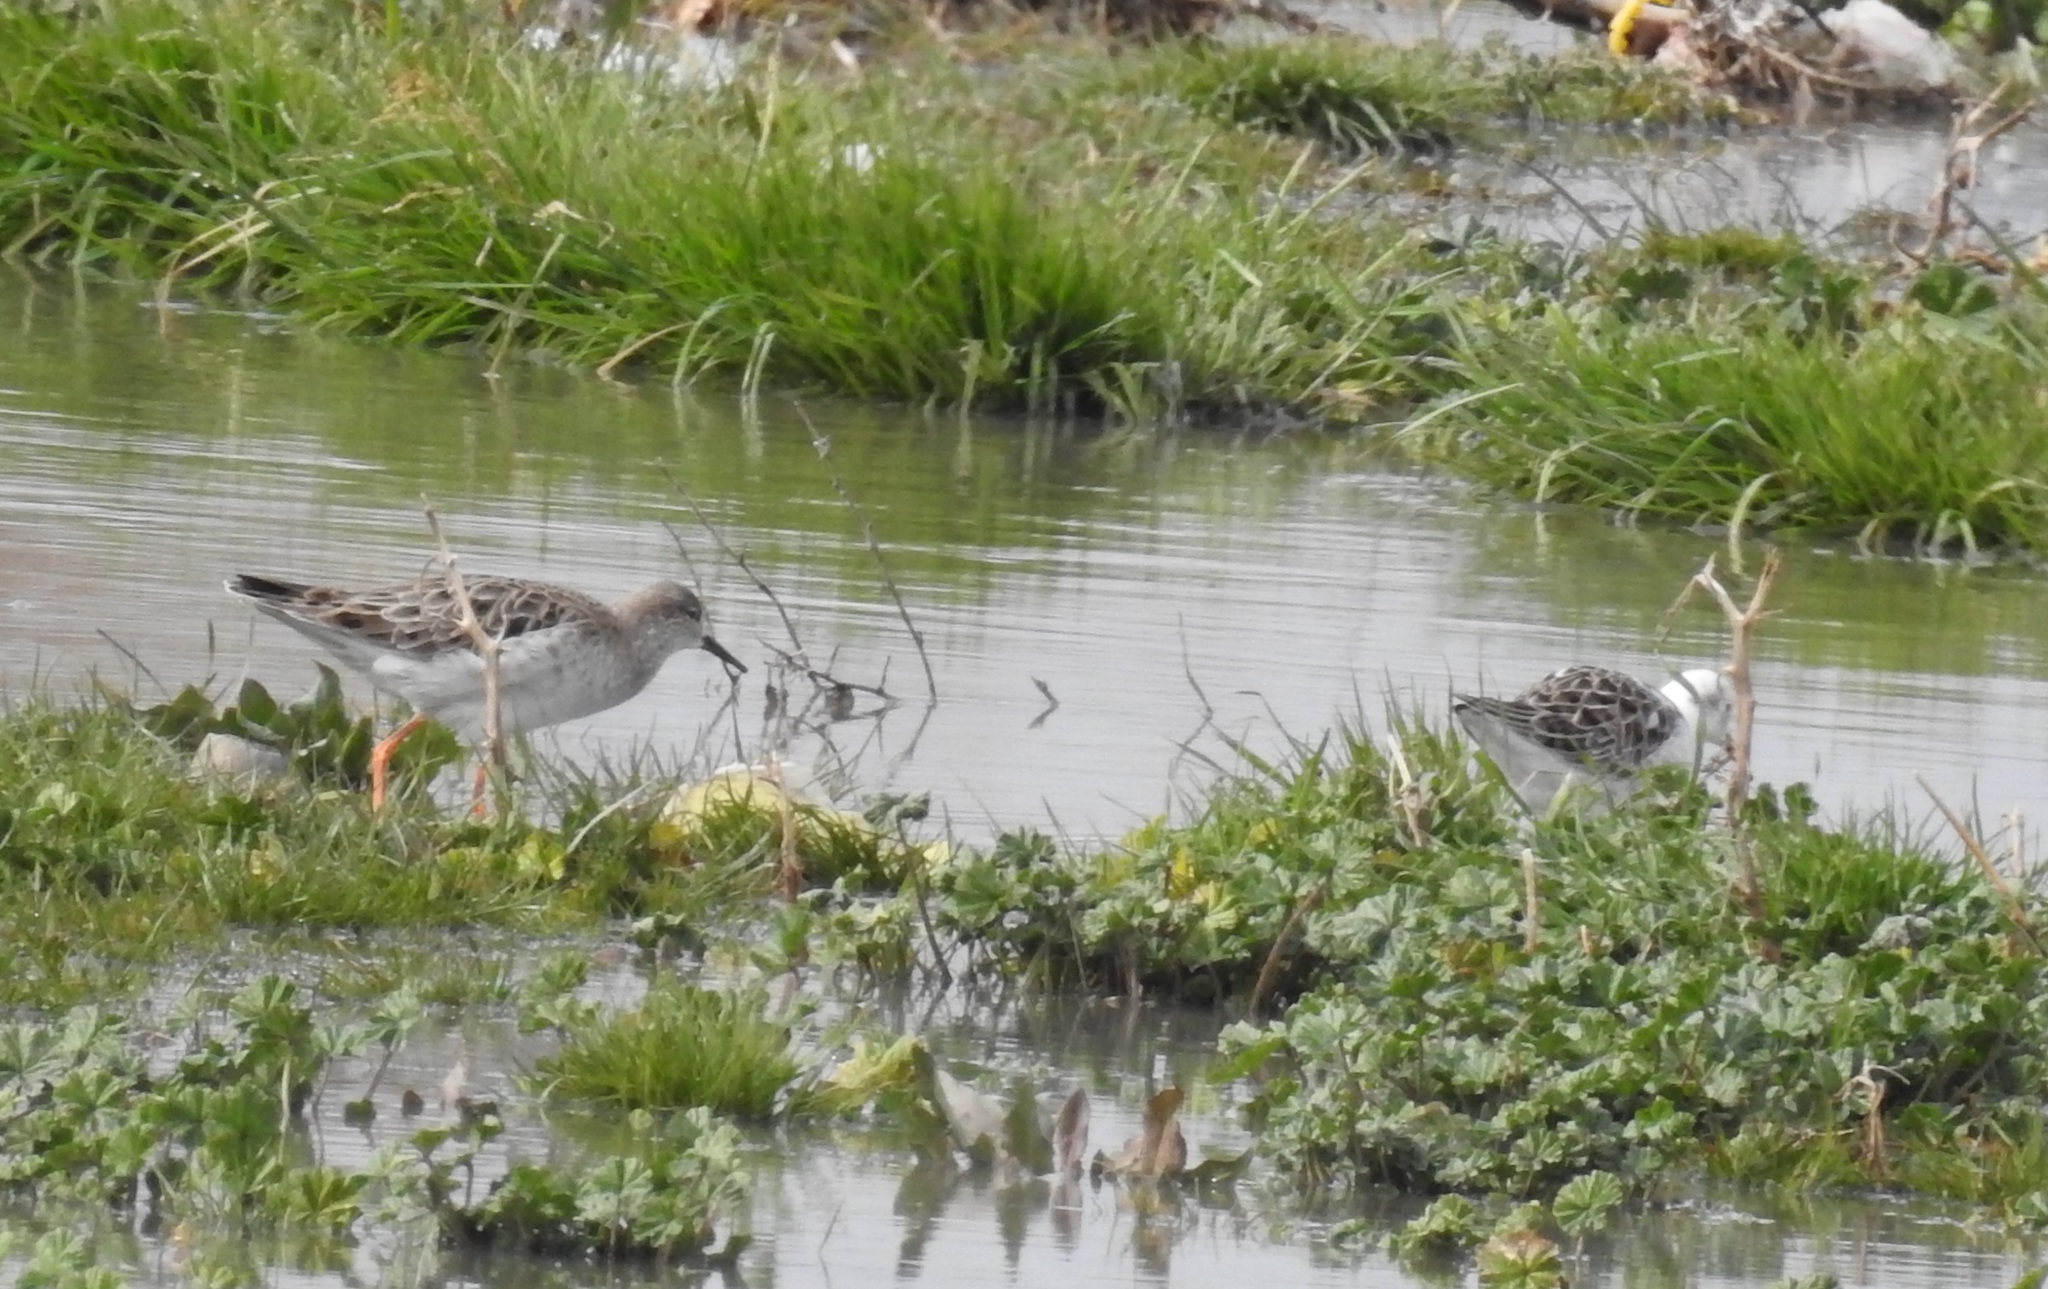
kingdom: Animalia
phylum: Chordata
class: Aves
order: Charadriiformes
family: Scolopacidae
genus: Calidris
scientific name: Calidris pugnax
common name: Ruff
